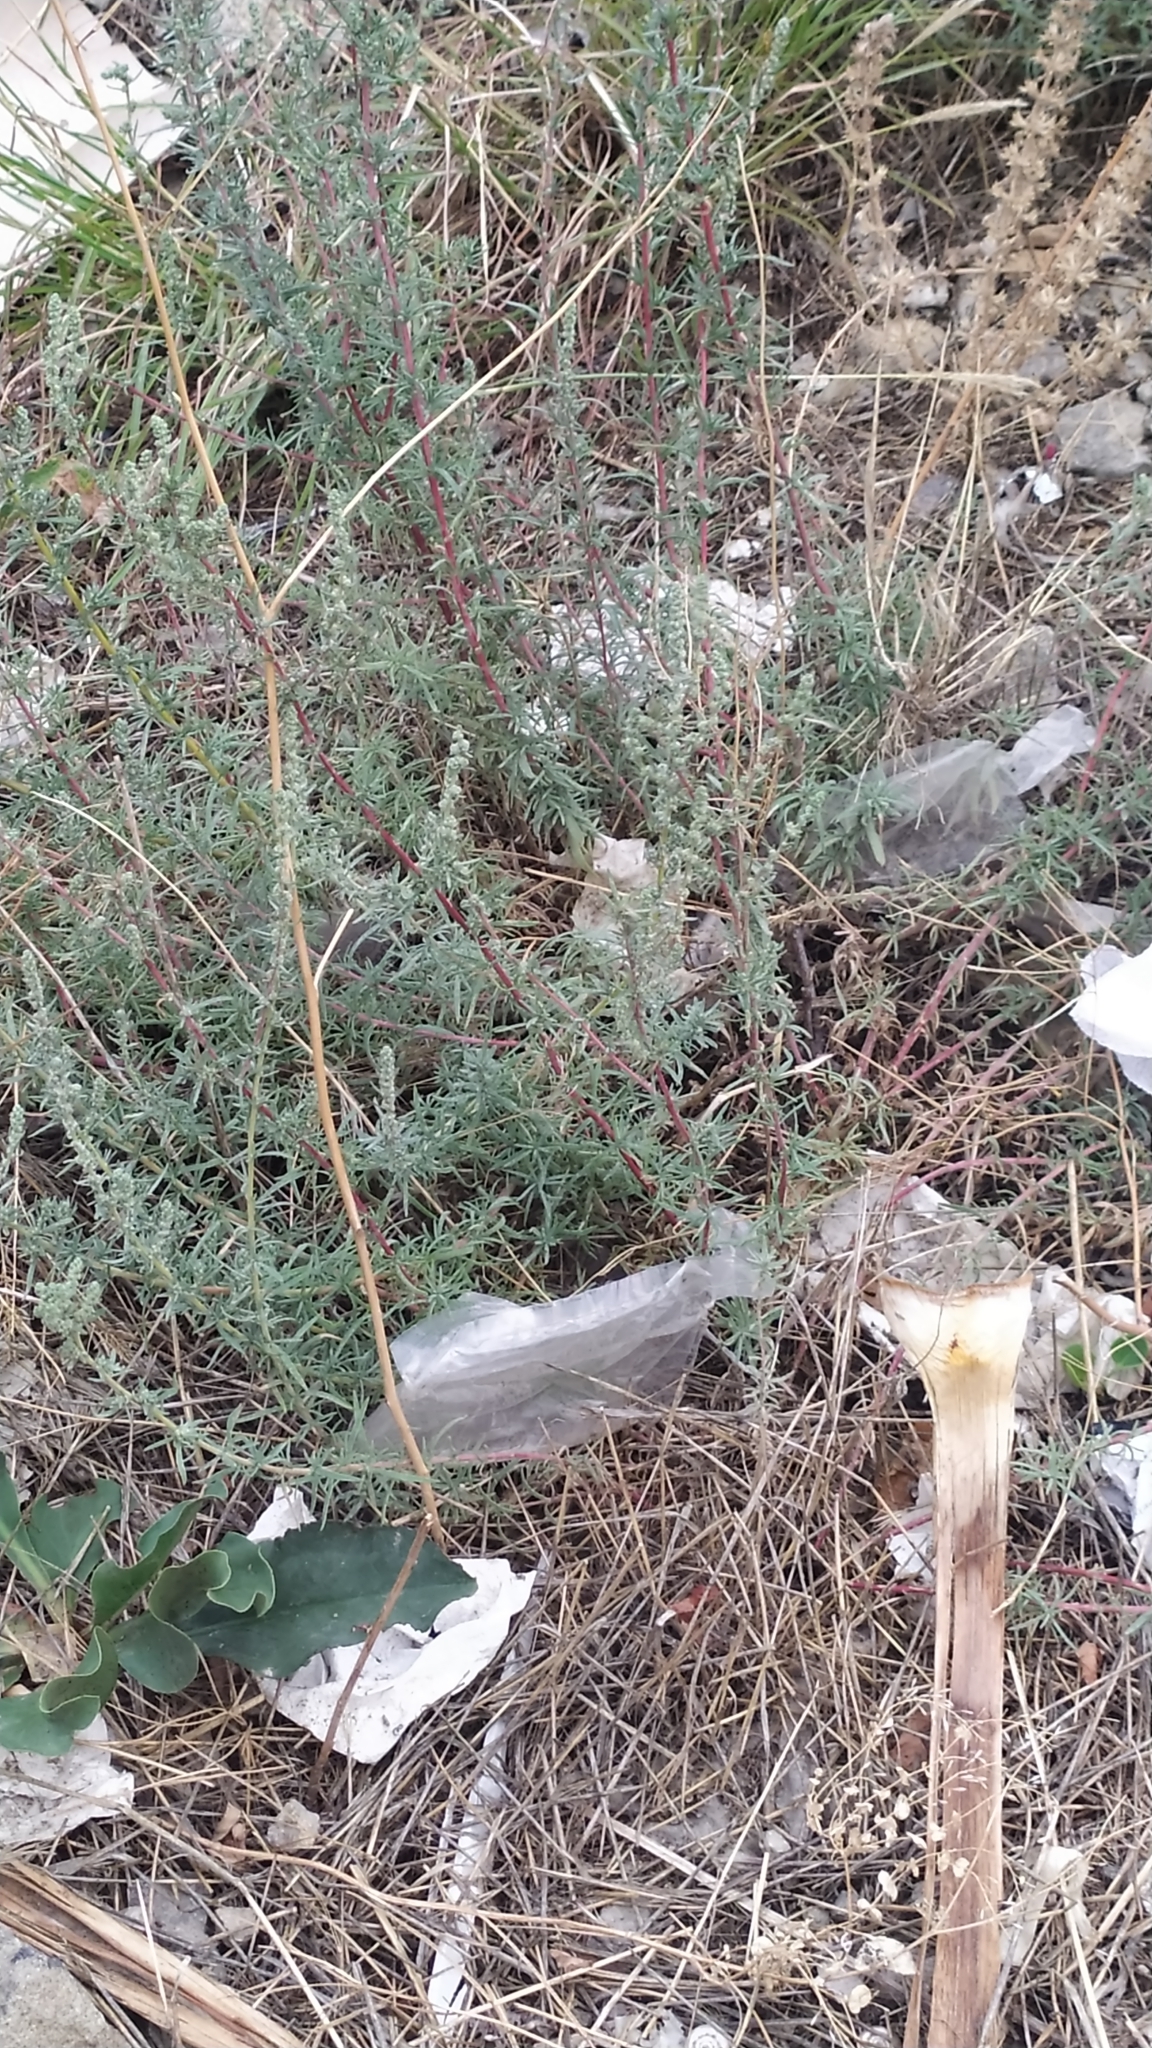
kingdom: Plantae
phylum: Tracheophyta
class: Magnoliopsida
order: Caryophyllales
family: Amaranthaceae
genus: Bassia
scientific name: Bassia prostrata
